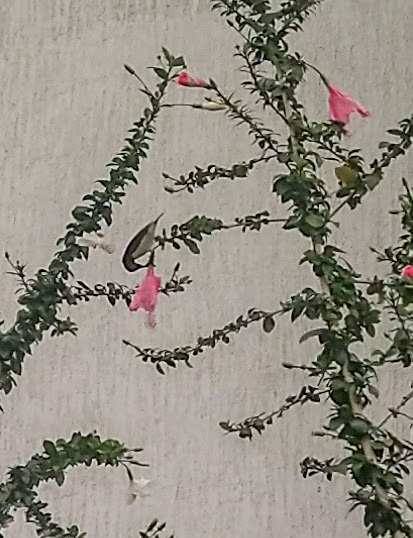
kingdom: Animalia
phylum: Chordata
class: Aves
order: Passeriformes
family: Nectariniidae
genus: Leptocoma
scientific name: Leptocoma zeylonica
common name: Purple-rumped sunbird
